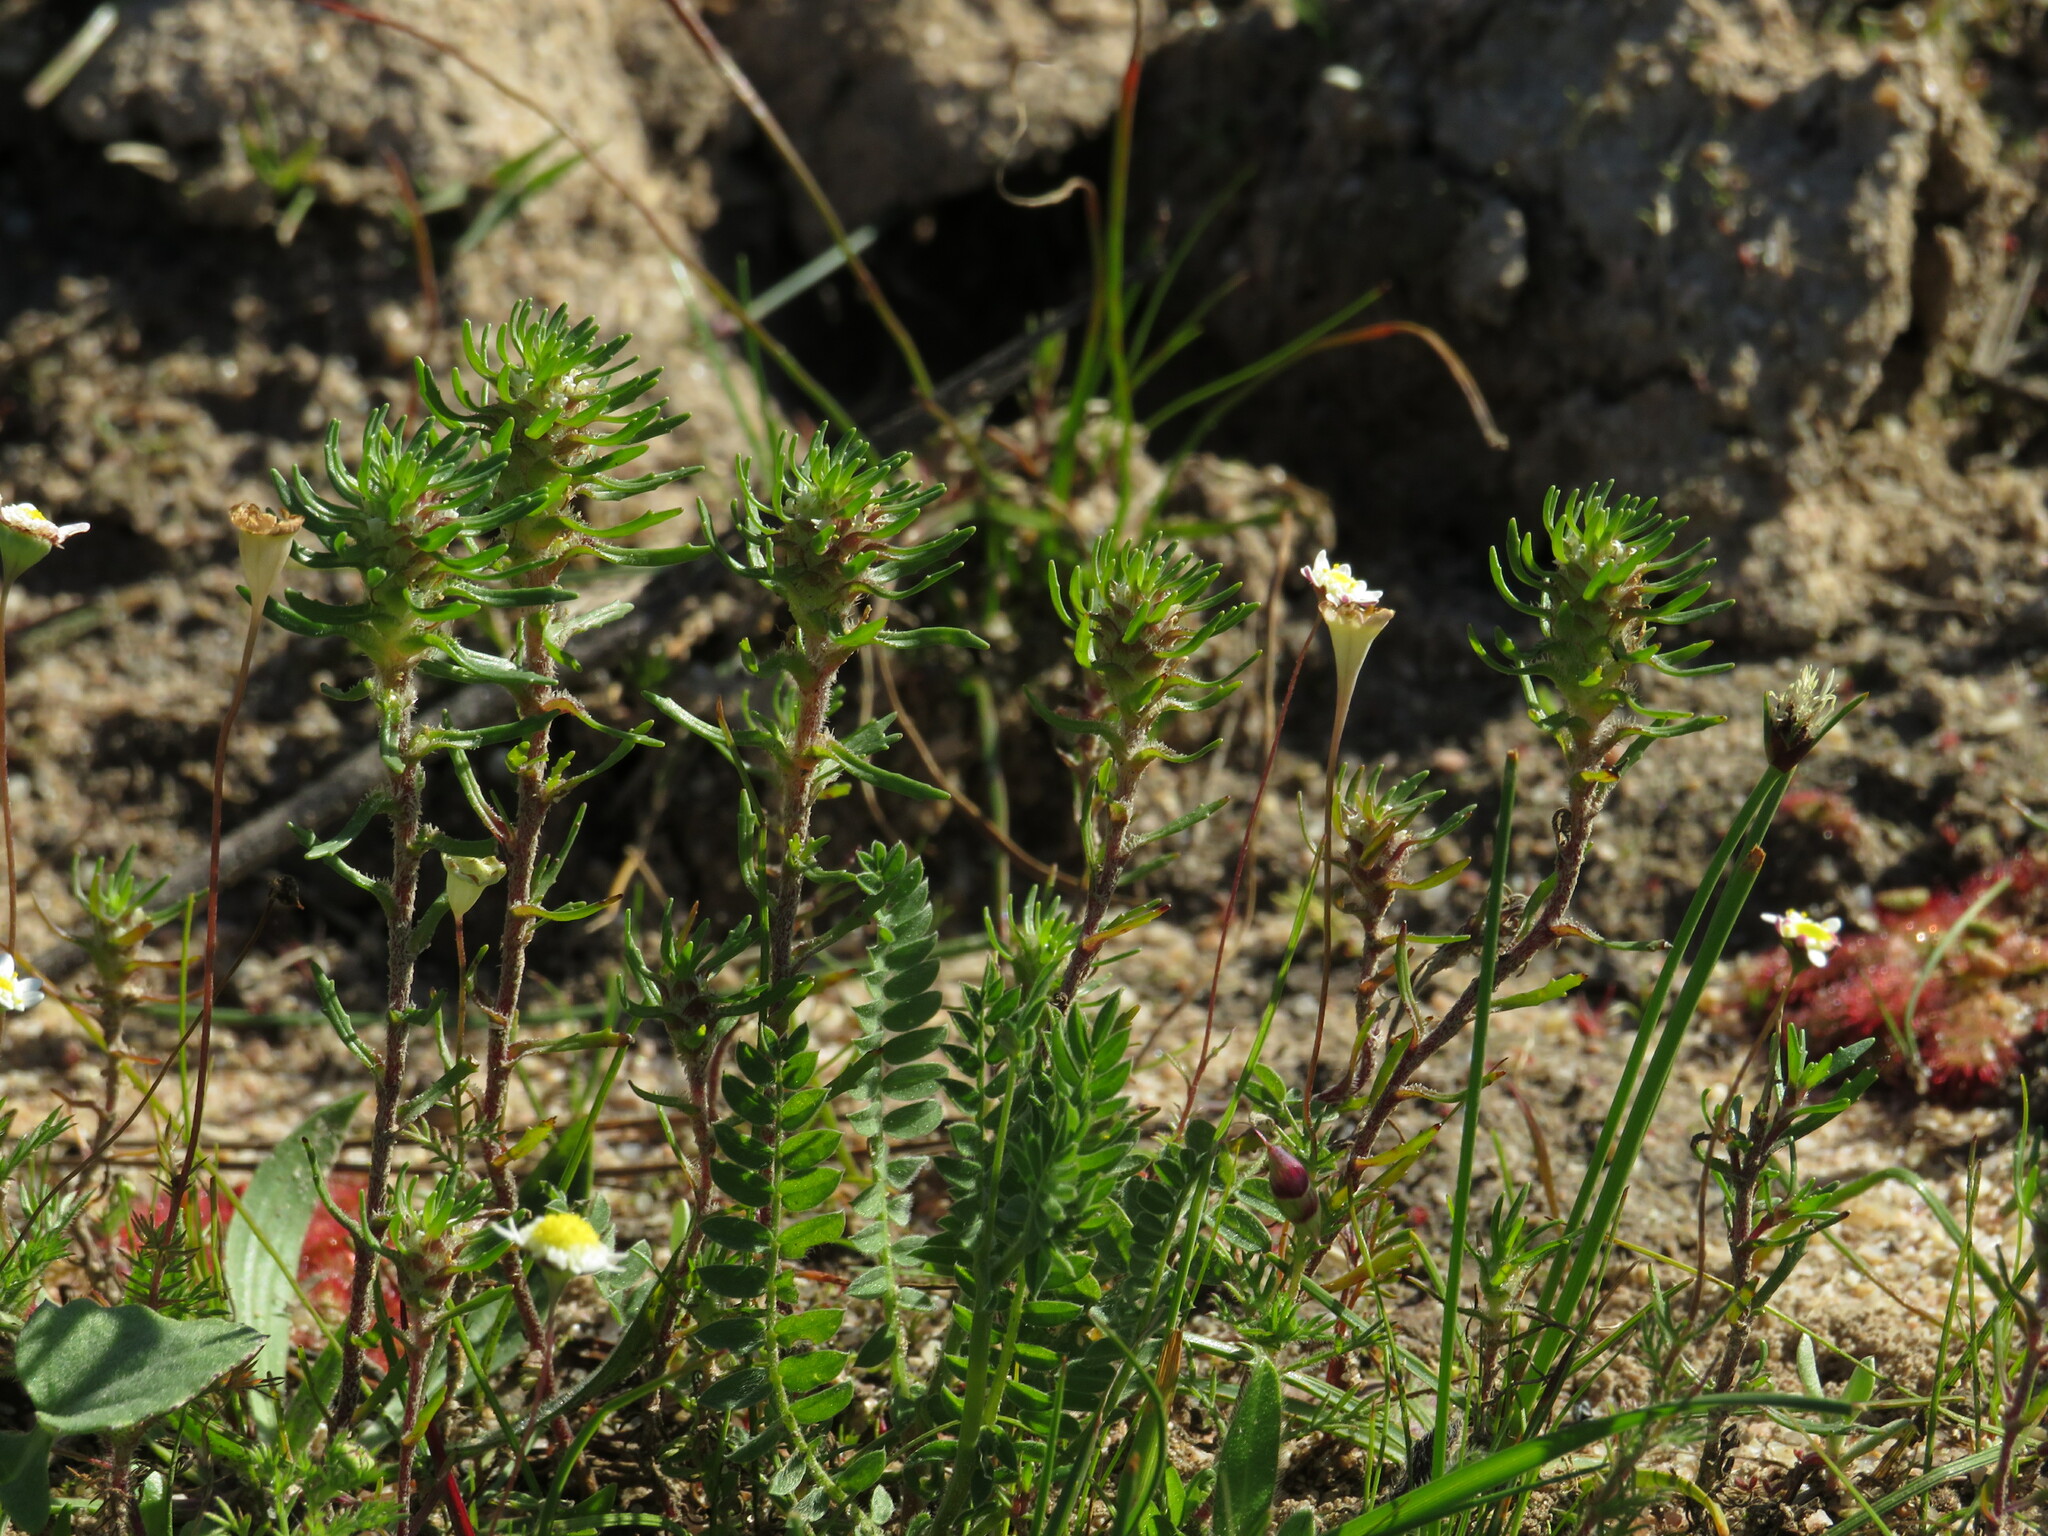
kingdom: Plantae
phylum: Tracheophyta
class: Magnoliopsida
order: Lamiales
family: Scrophulariaceae
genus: Dischisma
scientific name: Dischisma capitatum
